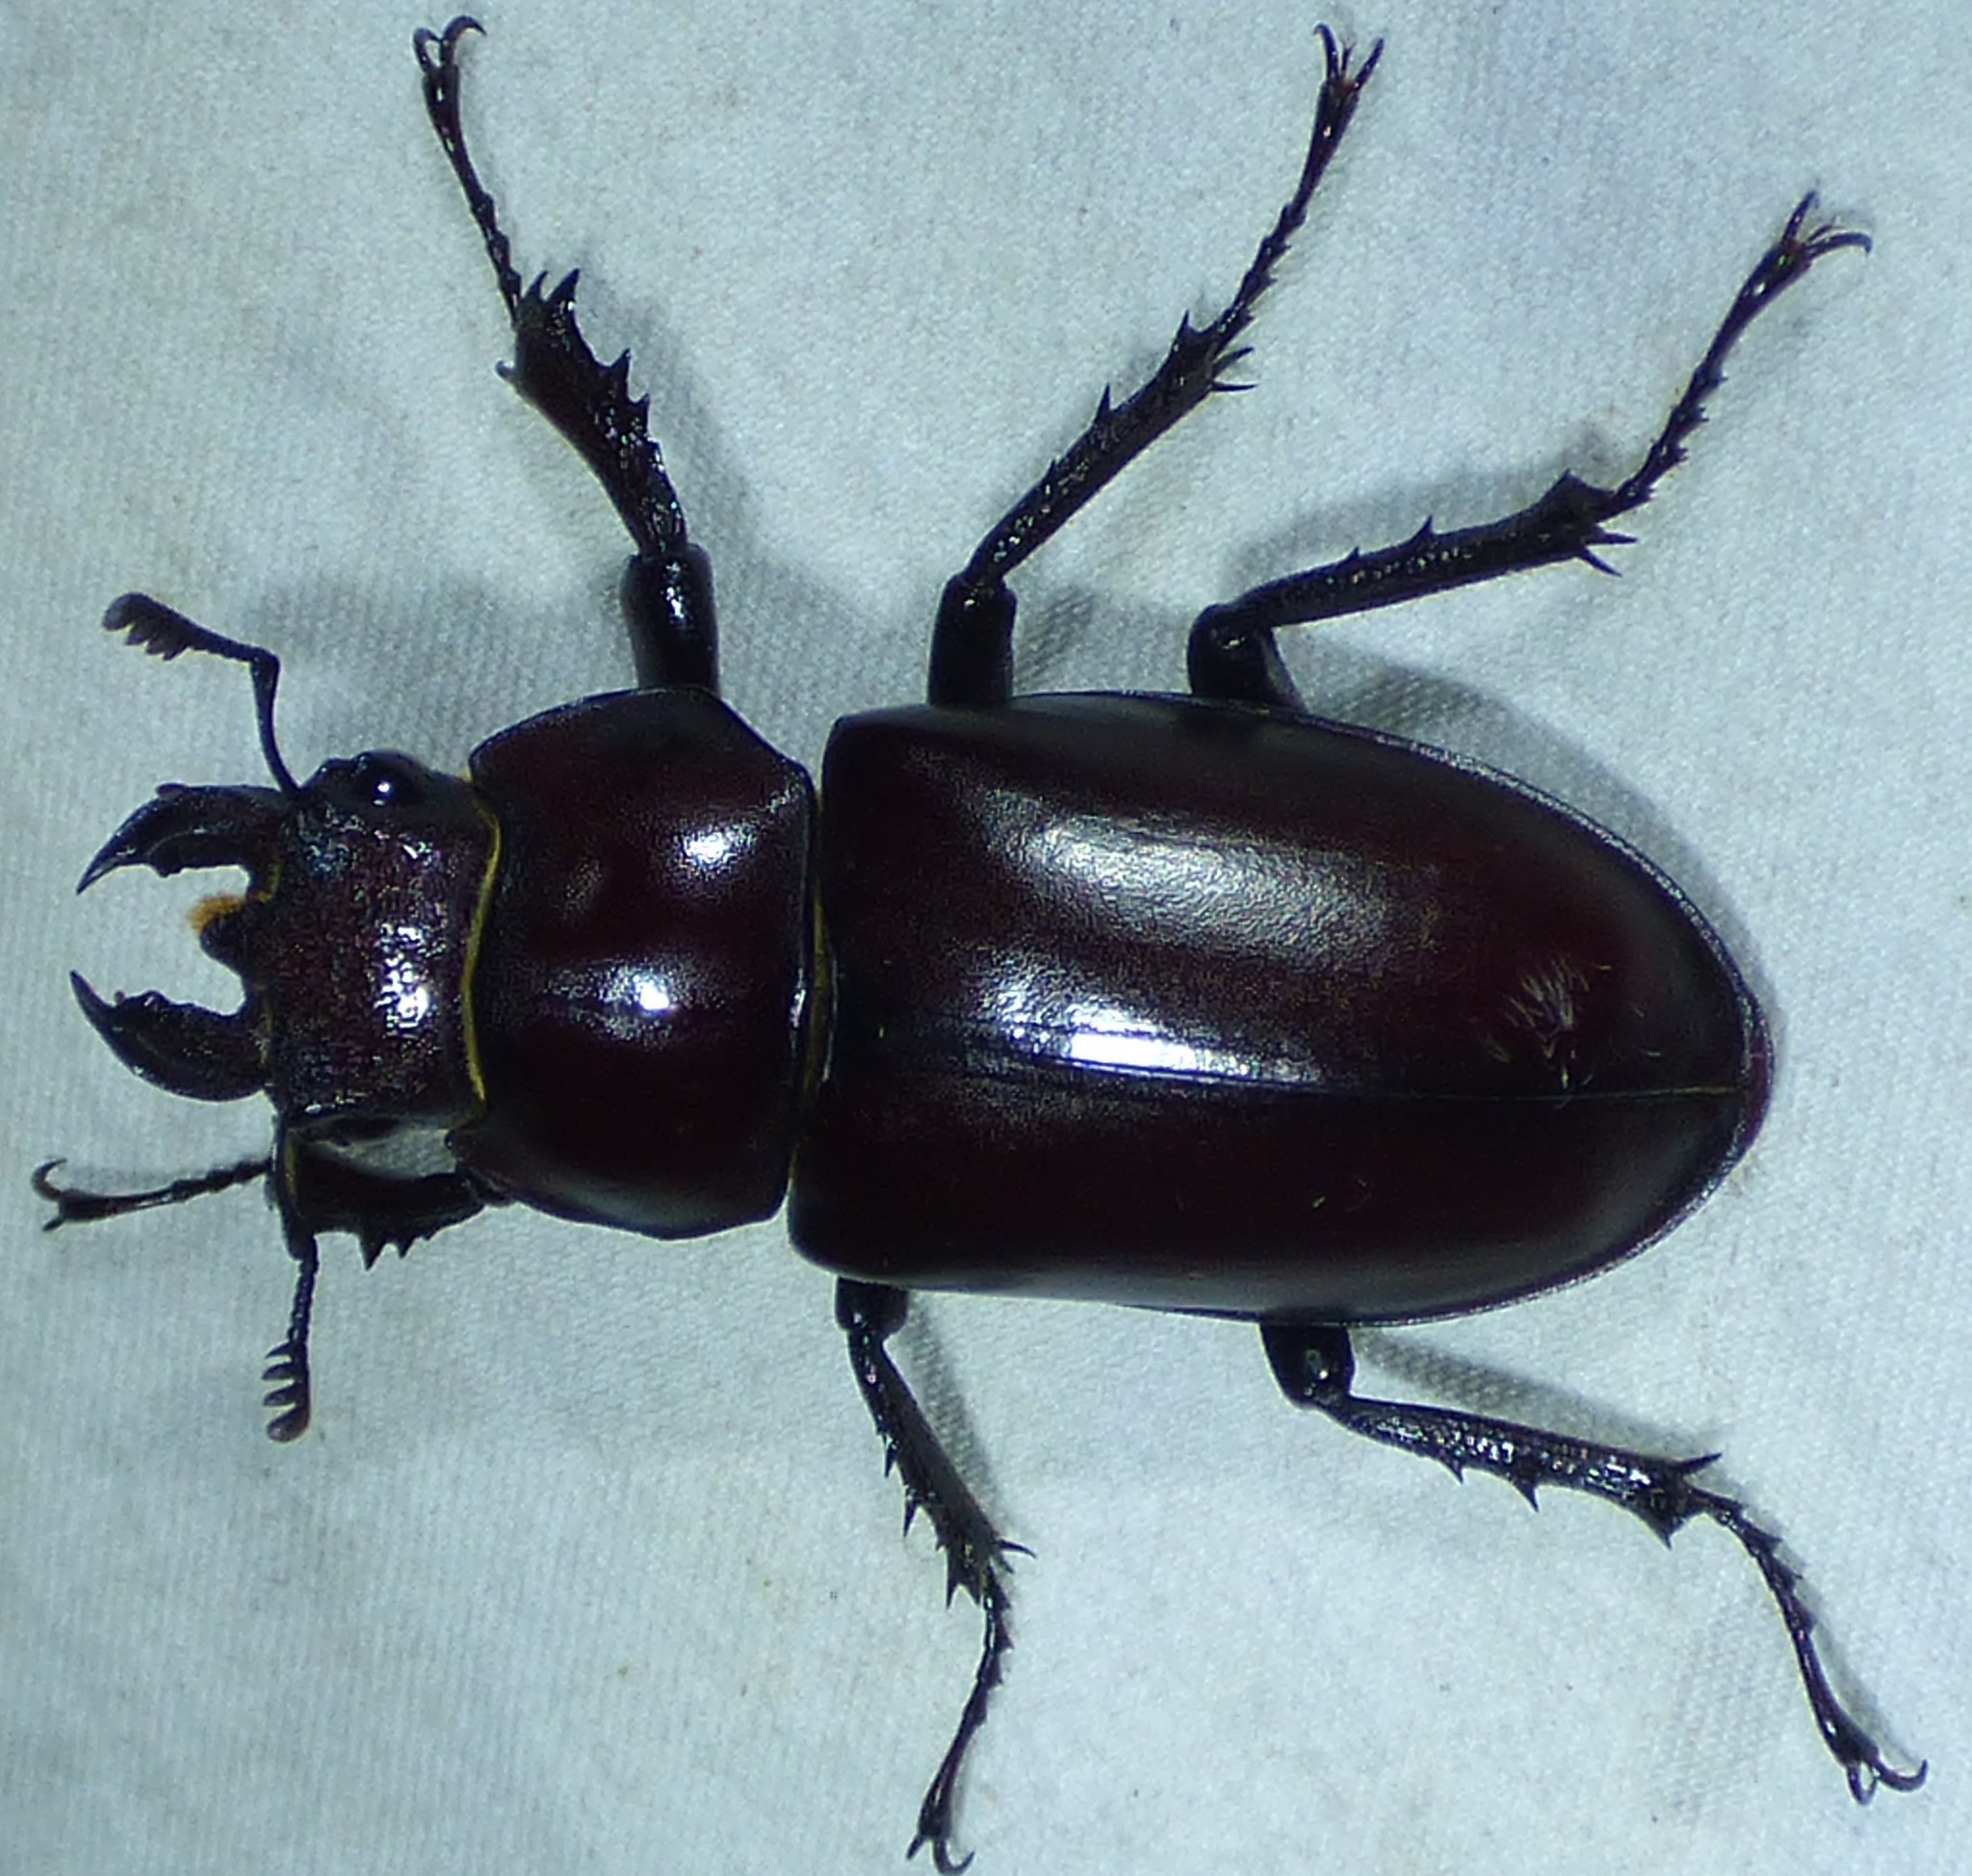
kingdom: Animalia
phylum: Arthropoda
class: Insecta
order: Coleoptera
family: Lucanidae
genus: Lucanus
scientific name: Lucanus elaphus
